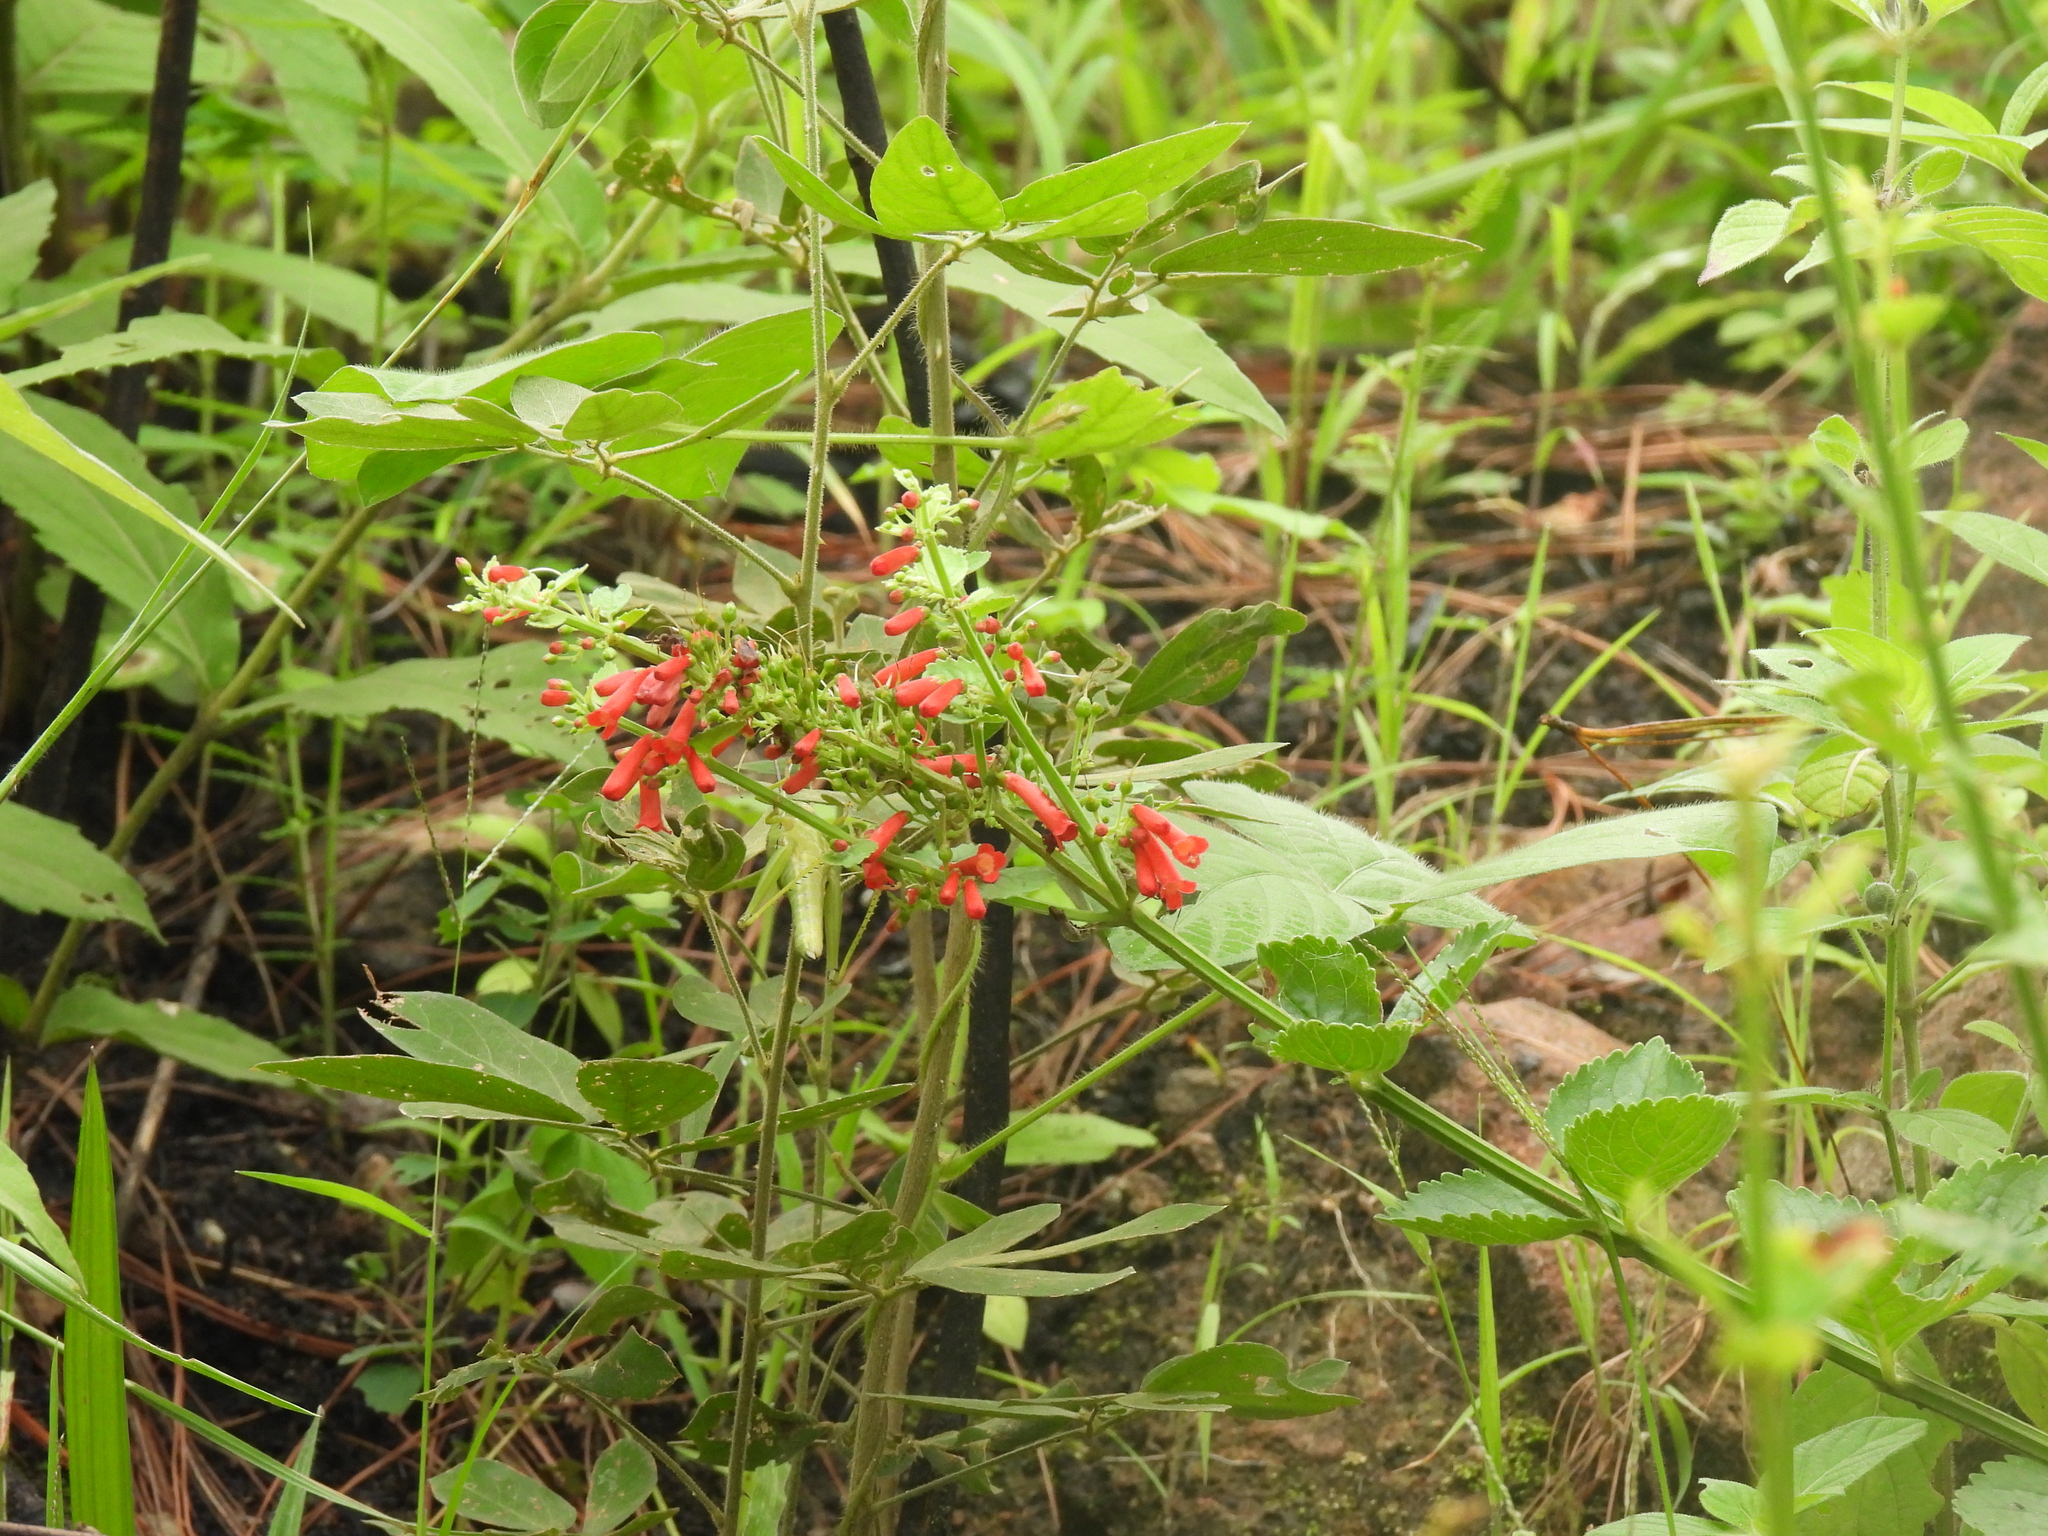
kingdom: Plantae
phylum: Tracheophyta
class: Magnoliopsida
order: Lamiales
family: Plantaginaceae
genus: Russelia
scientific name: Russelia sarmentosa
